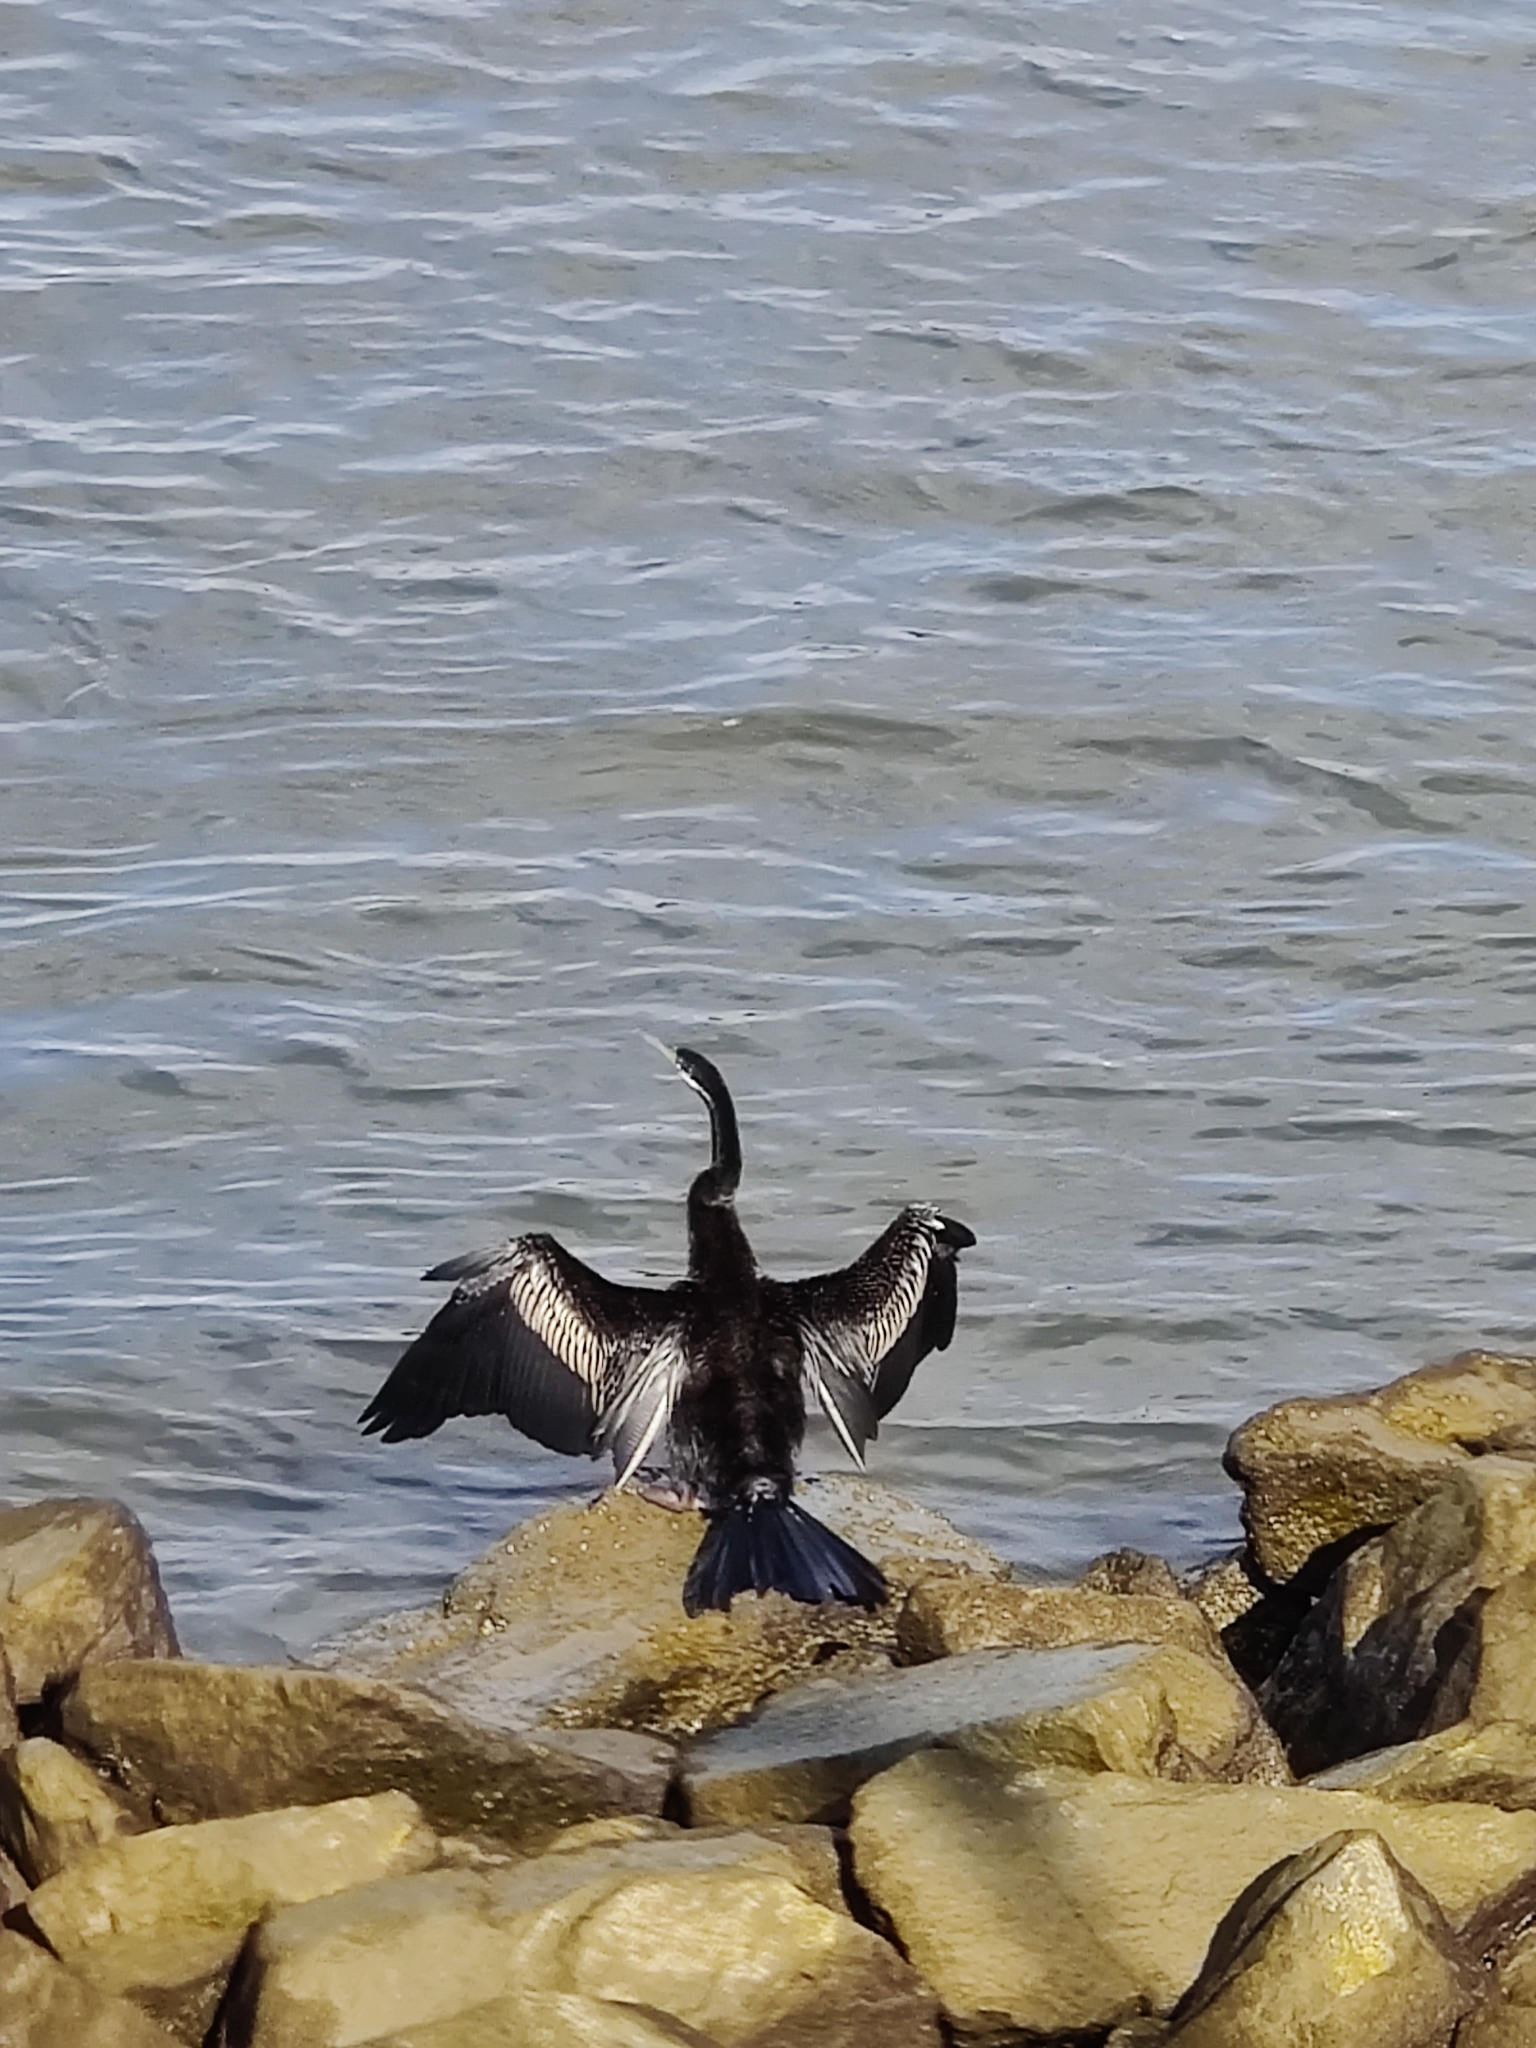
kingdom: Animalia
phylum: Chordata
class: Aves
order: Suliformes
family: Anhingidae
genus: Anhinga
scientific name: Anhinga novaehollandiae
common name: Australasian darter
